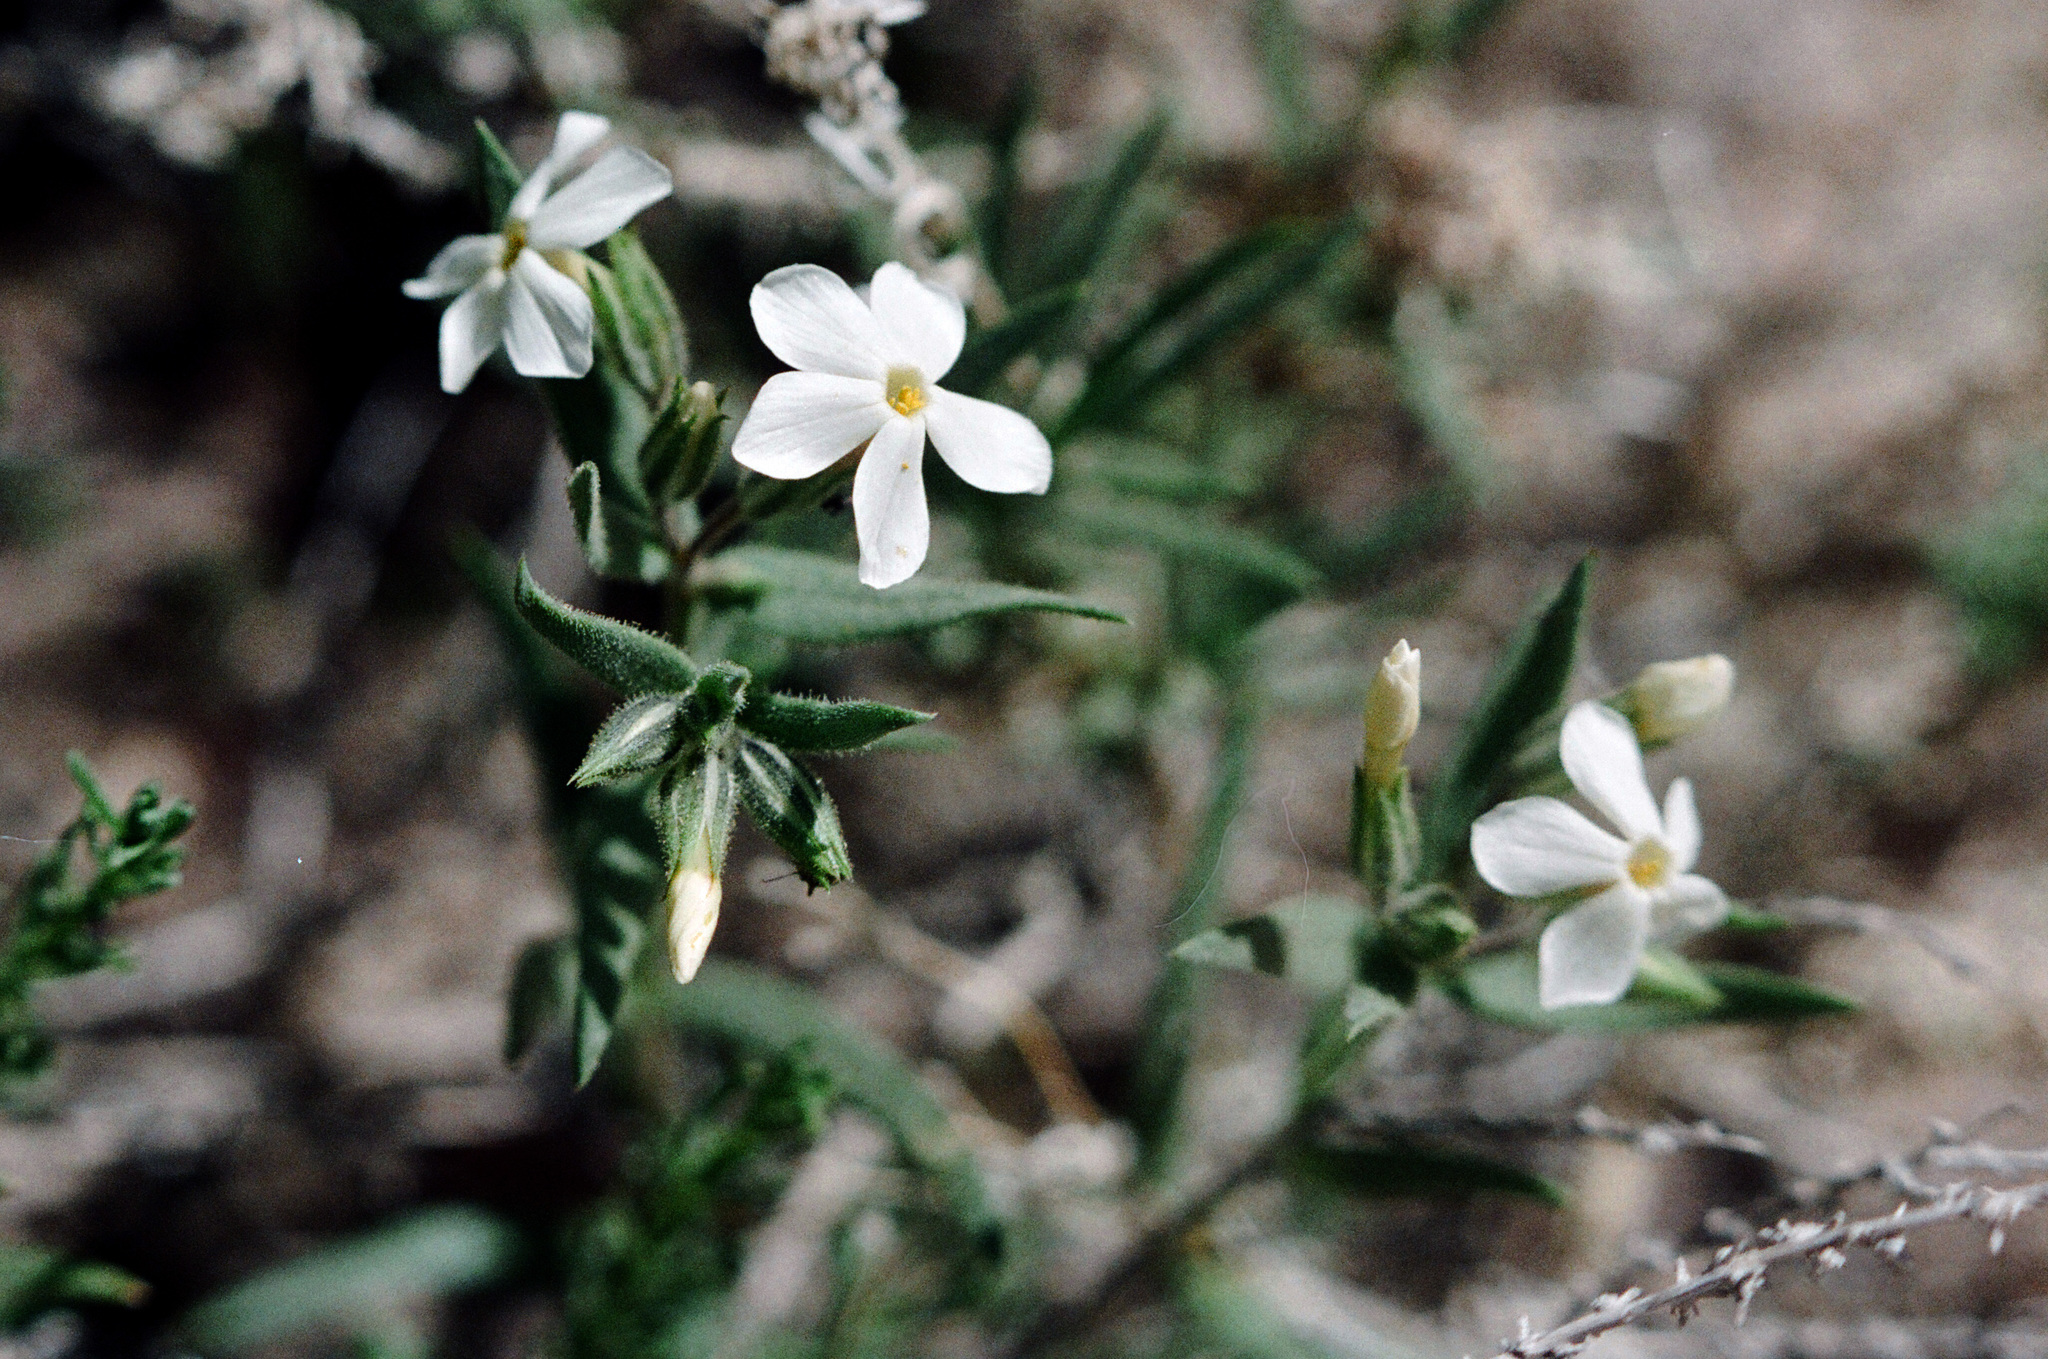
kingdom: Plantae
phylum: Tracheophyta
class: Magnoliopsida
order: Ericales
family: Polemoniaceae
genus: Phlox
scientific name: Phlox longifolia
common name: Longleaf phlox
